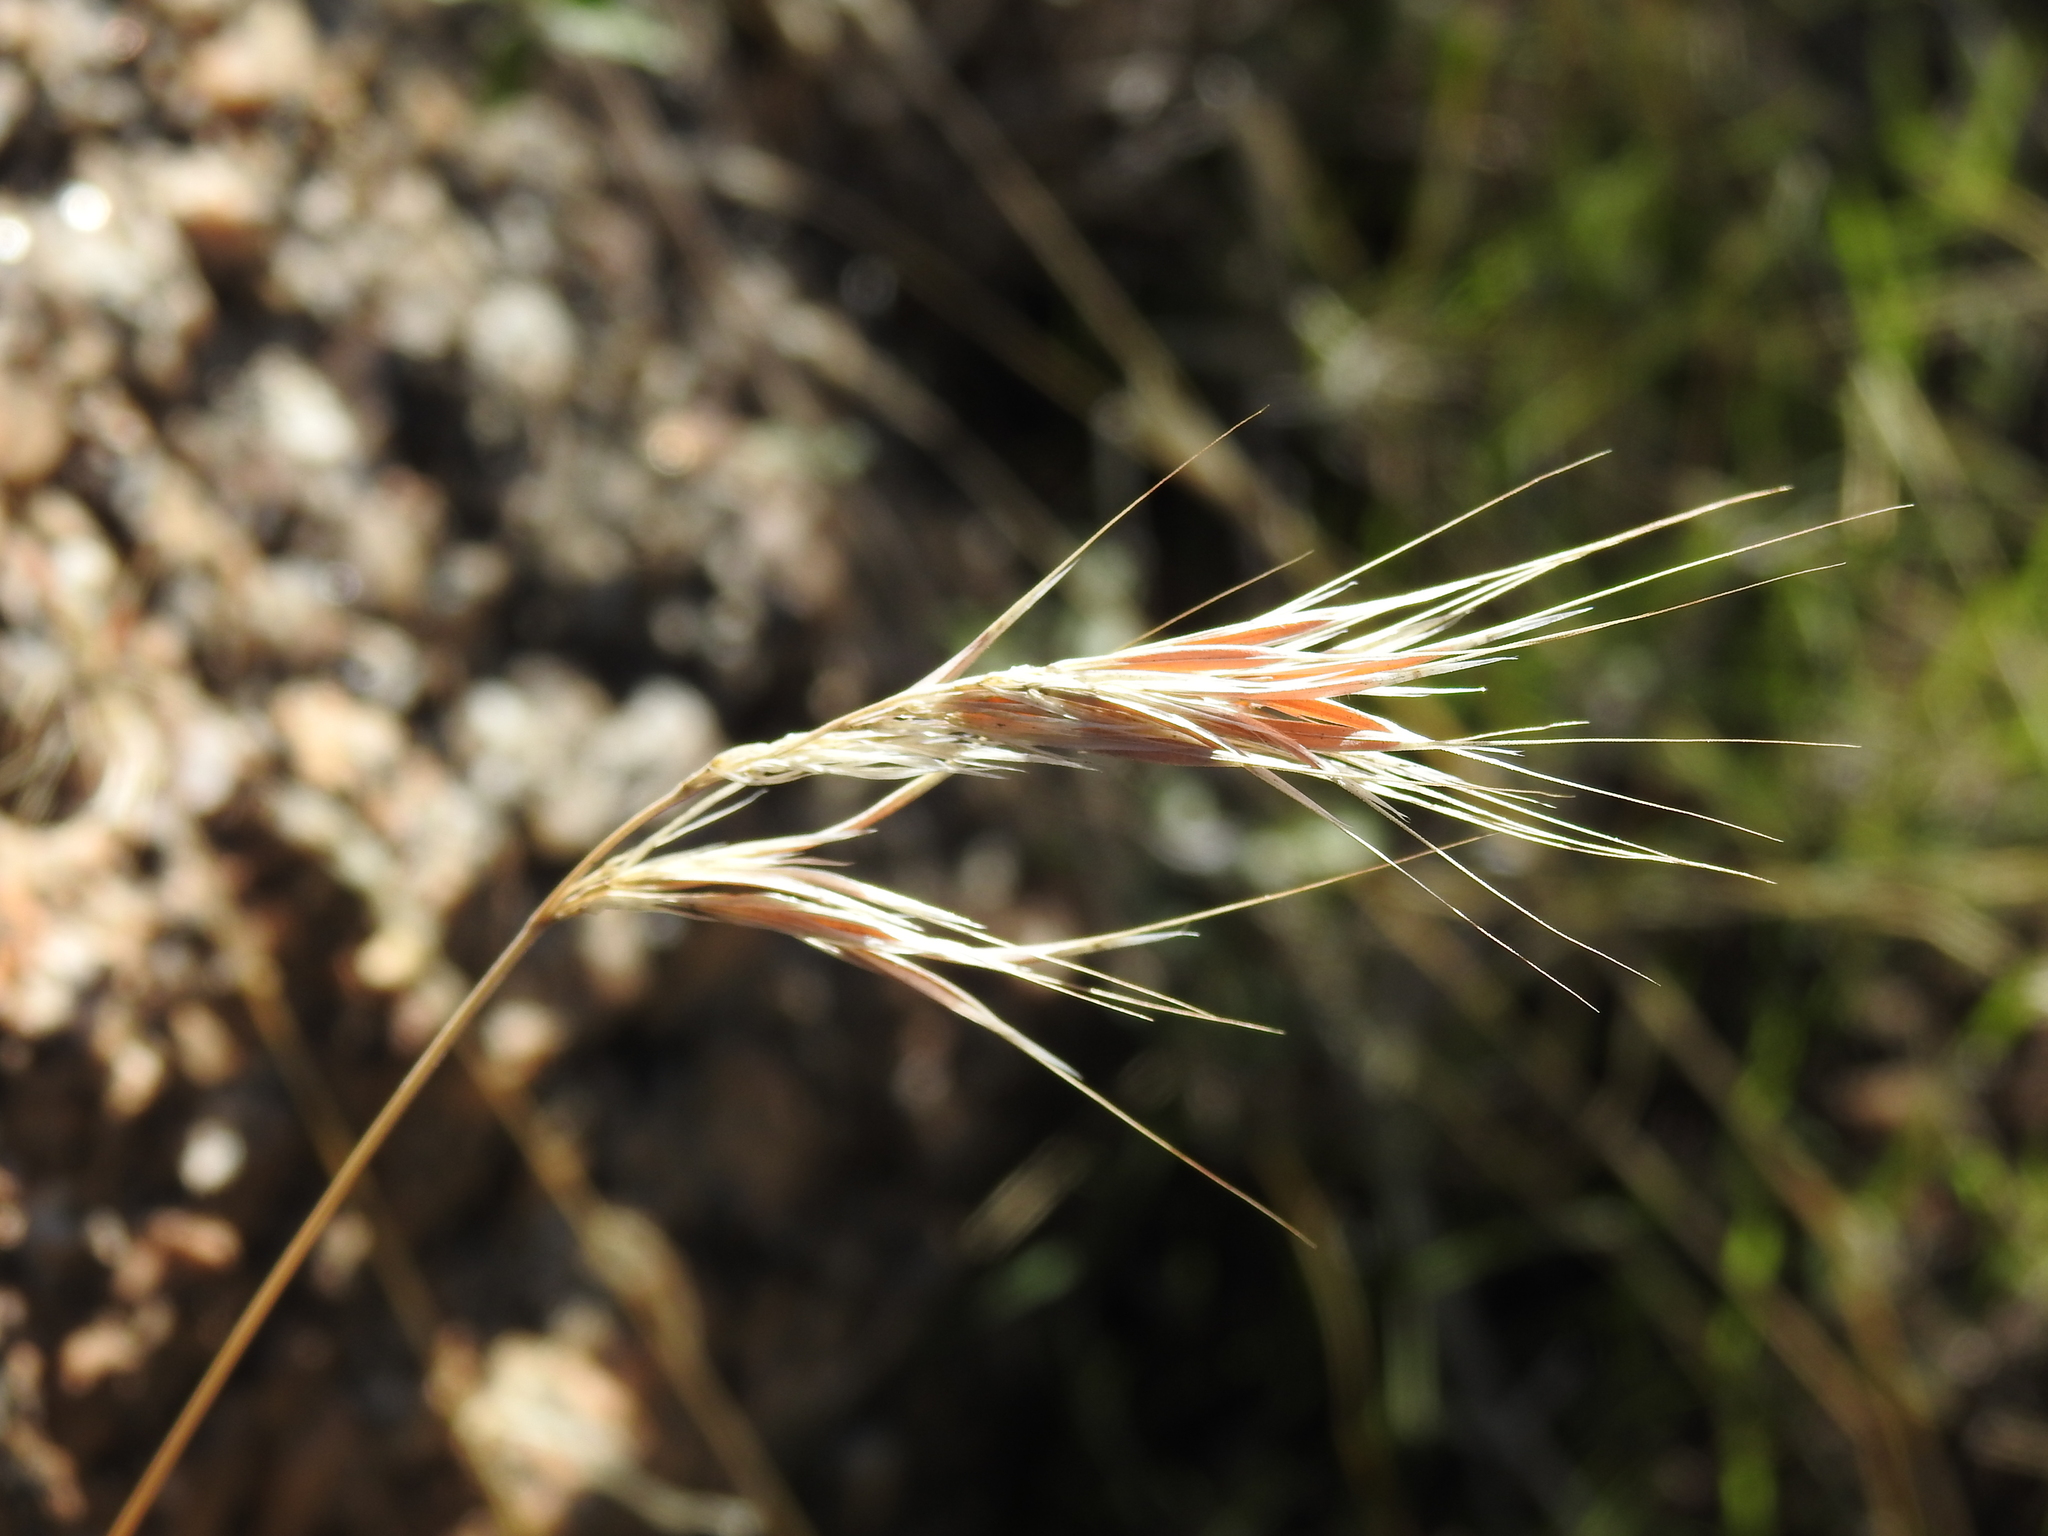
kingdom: Plantae
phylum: Tracheophyta
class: Liliopsida
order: Poales
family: Poaceae
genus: Bromus
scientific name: Bromus rubens
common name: Red brome
